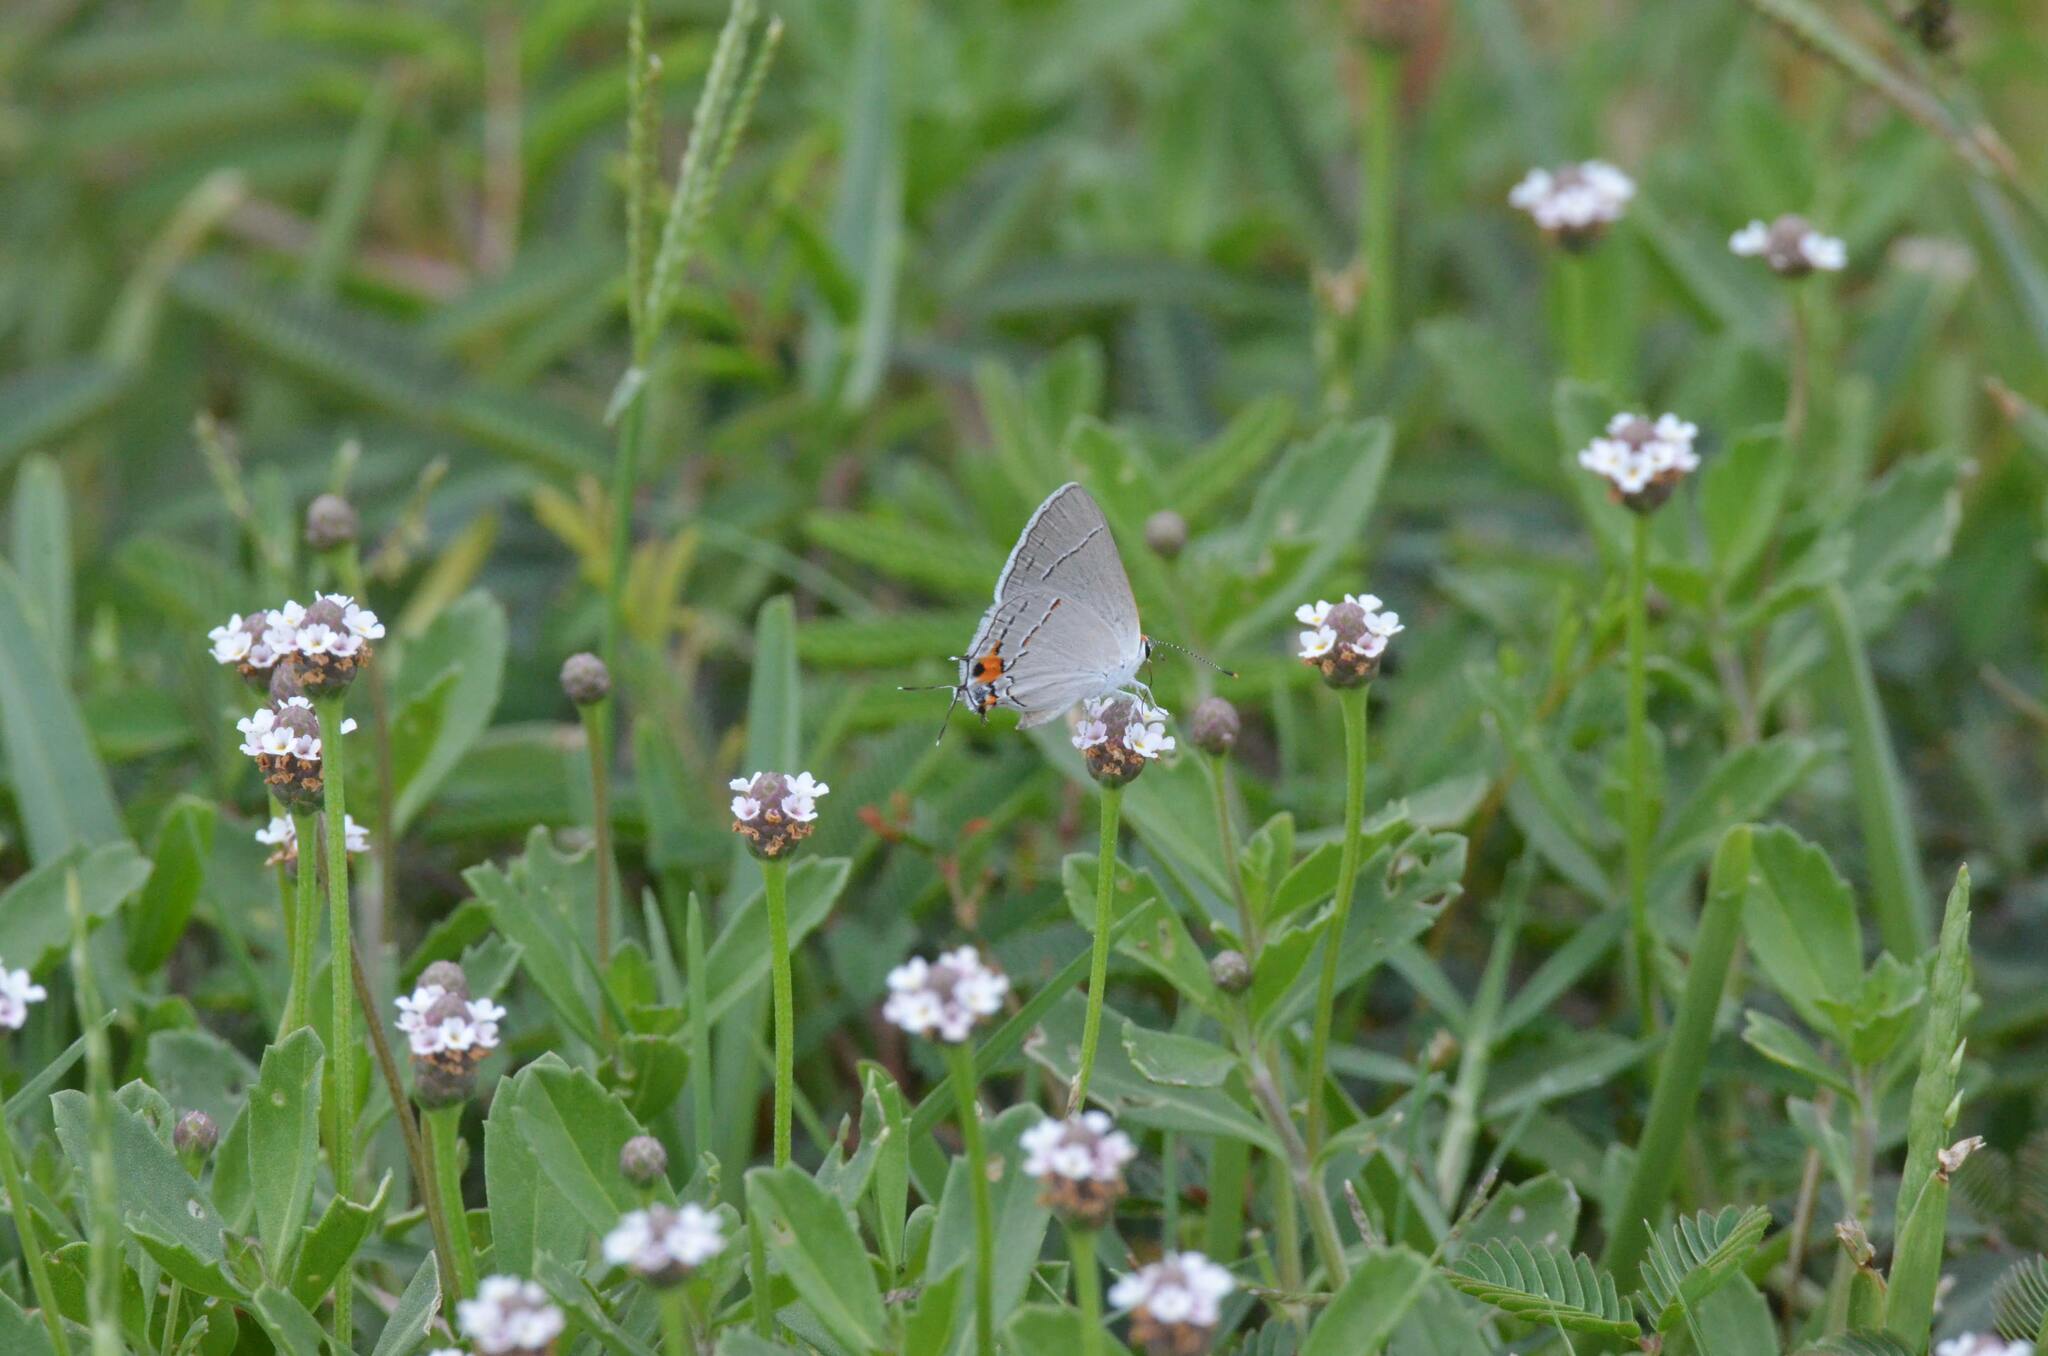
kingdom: Animalia
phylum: Arthropoda
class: Insecta
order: Lepidoptera
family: Lycaenidae
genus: Strymon
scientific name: Strymon melinus
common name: Gray hairstreak
